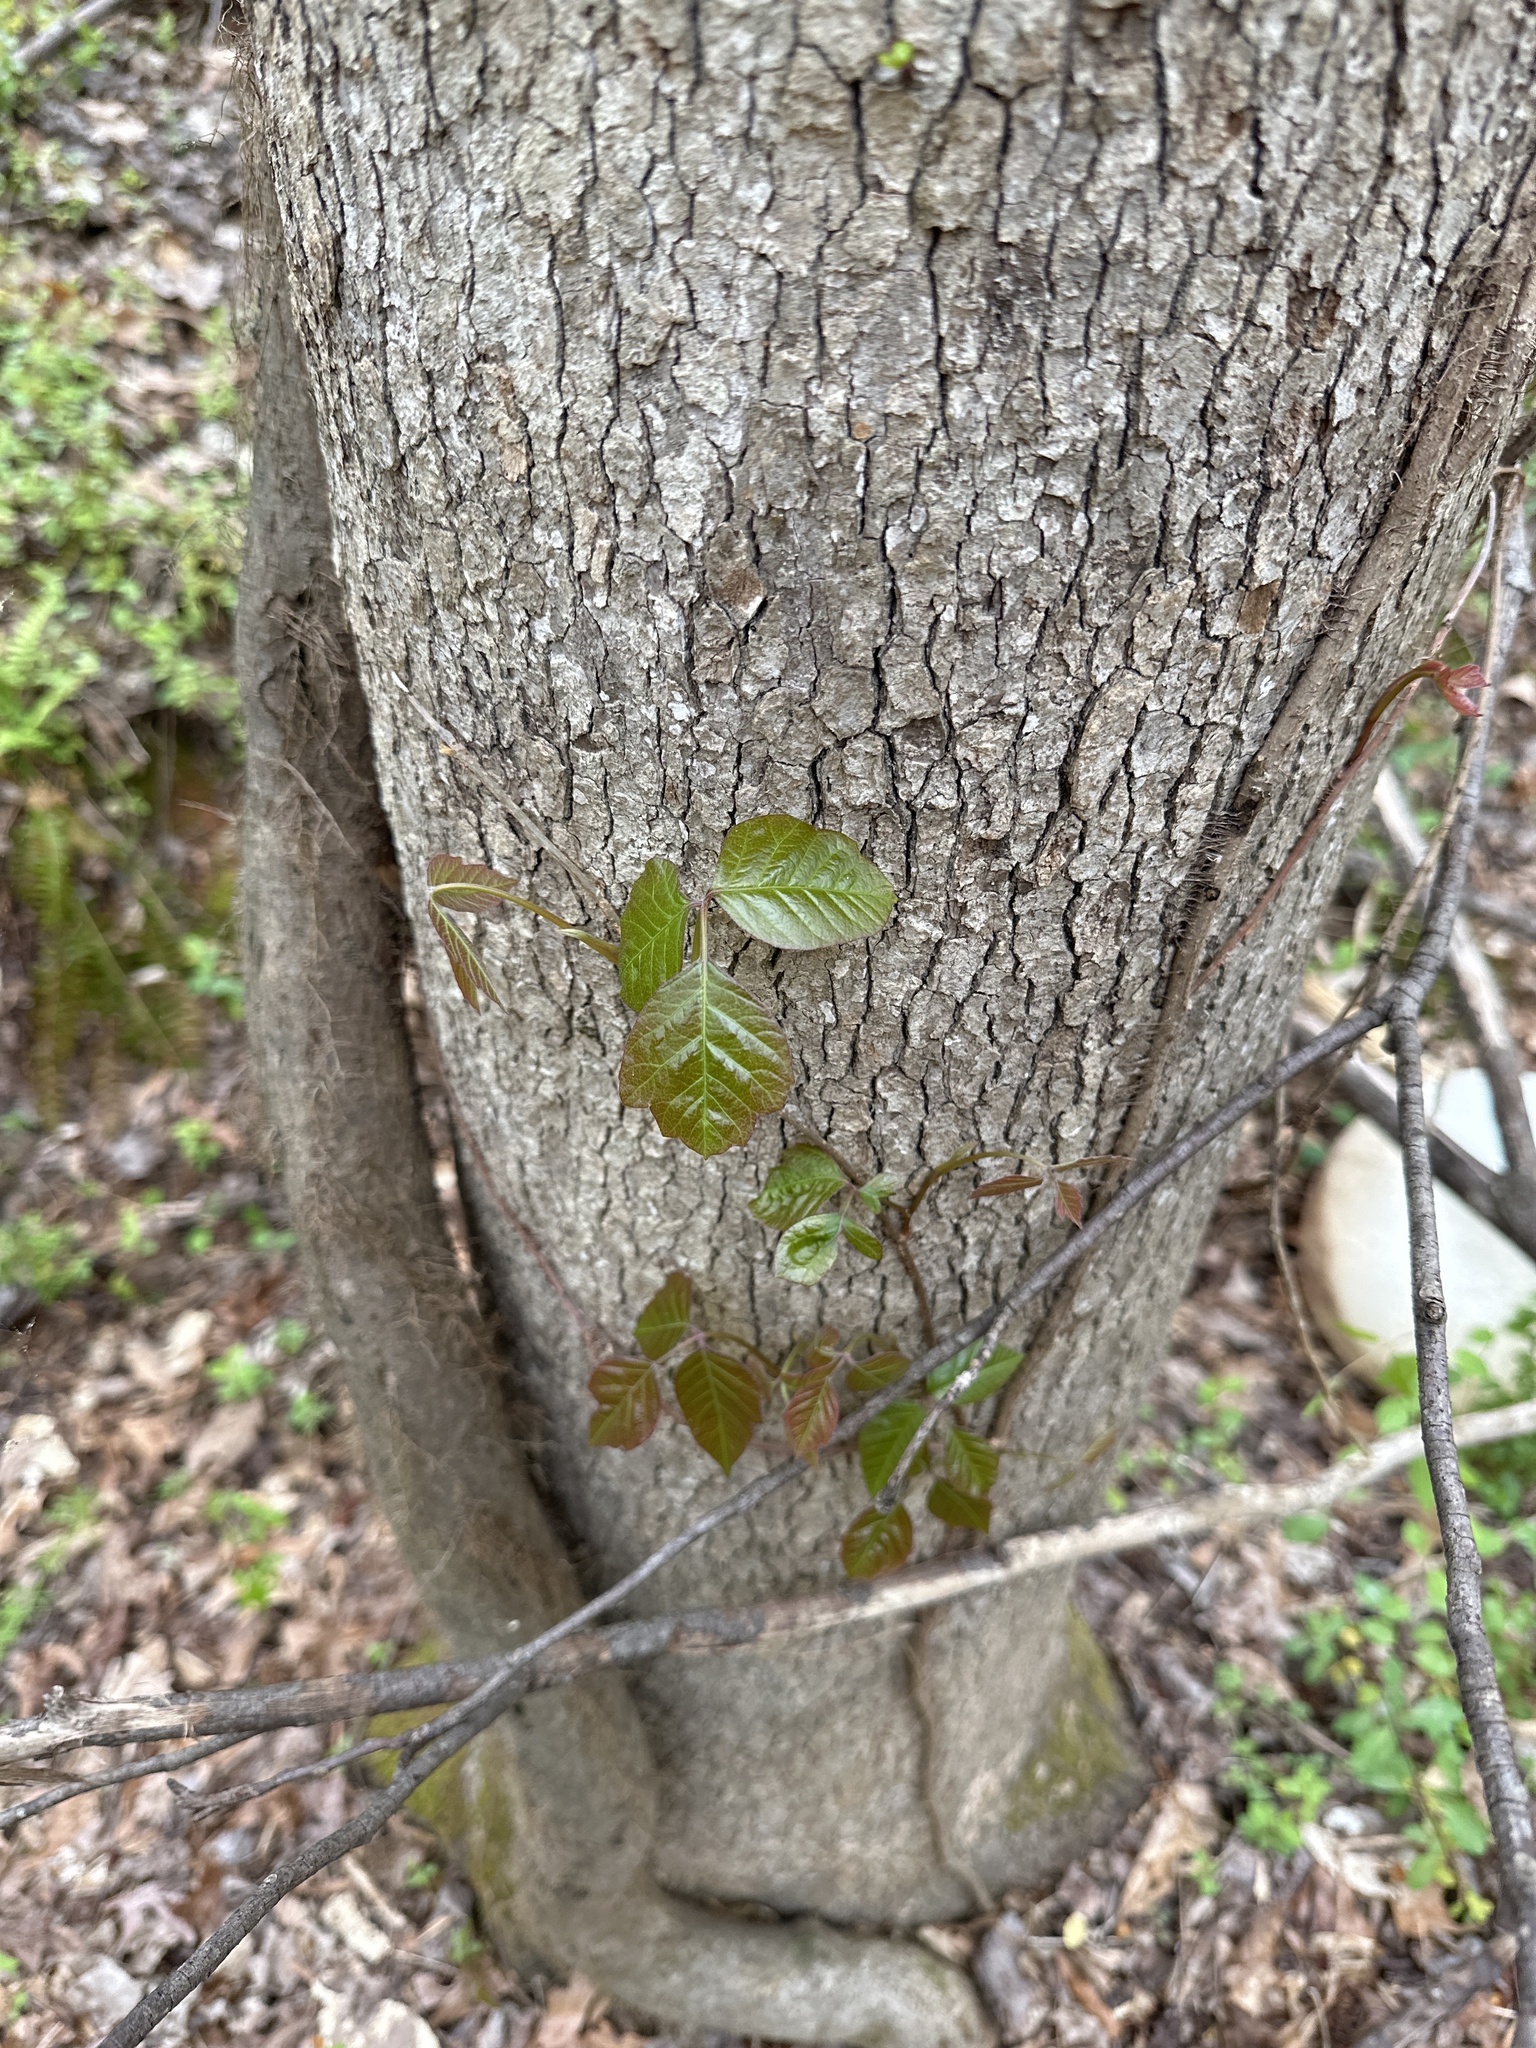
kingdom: Plantae
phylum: Tracheophyta
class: Magnoliopsida
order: Sapindales
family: Anacardiaceae
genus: Toxicodendron
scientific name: Toxicodendron radicans
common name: Poison ivy
